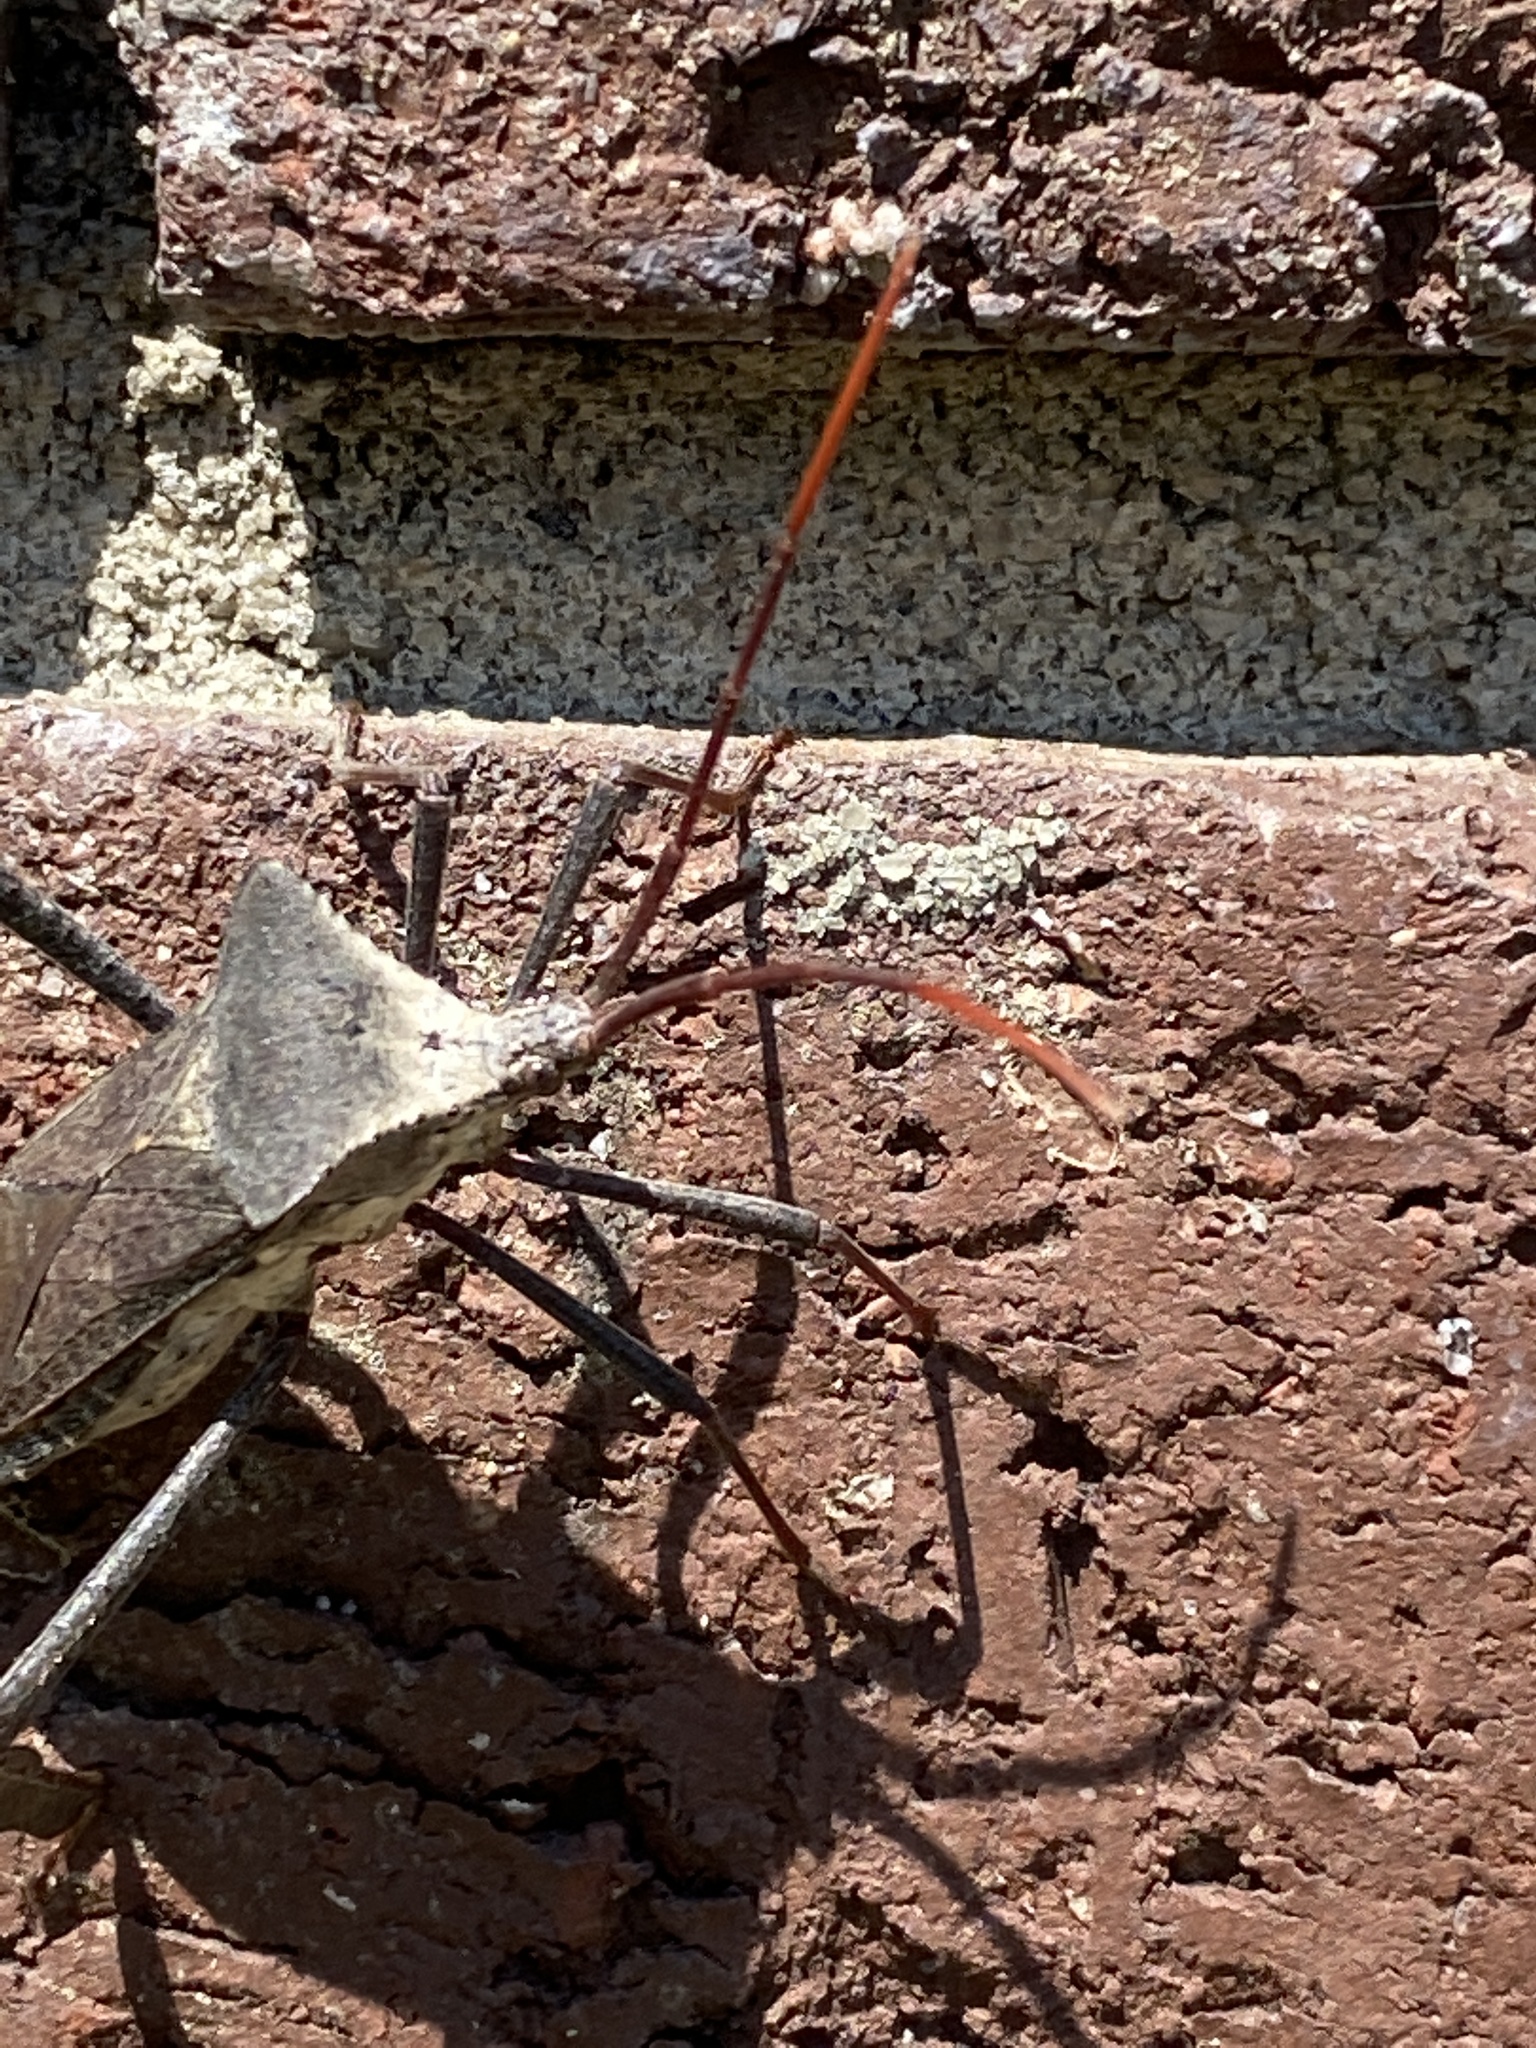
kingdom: Animalia
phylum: Arthropoda
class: Insecta
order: Hemiptera
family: Coreidae
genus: Acanthocephala
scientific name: Acanthocephala declivis
